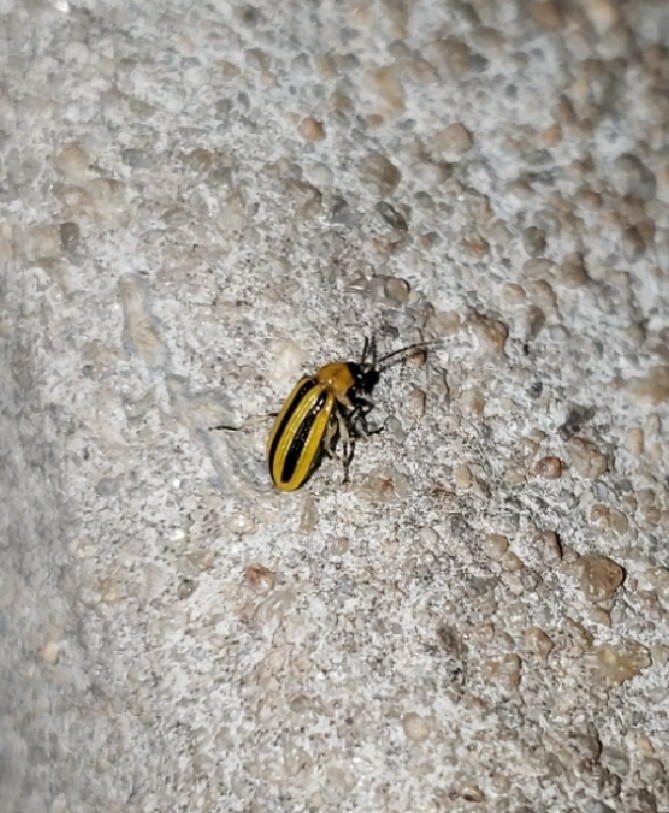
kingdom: Animalia
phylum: Arthropoda
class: Insecta
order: Coleoptera
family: Chrysomelidae
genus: Acalymma
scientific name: Acalymma vittatum
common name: Striped cucumber beetle
